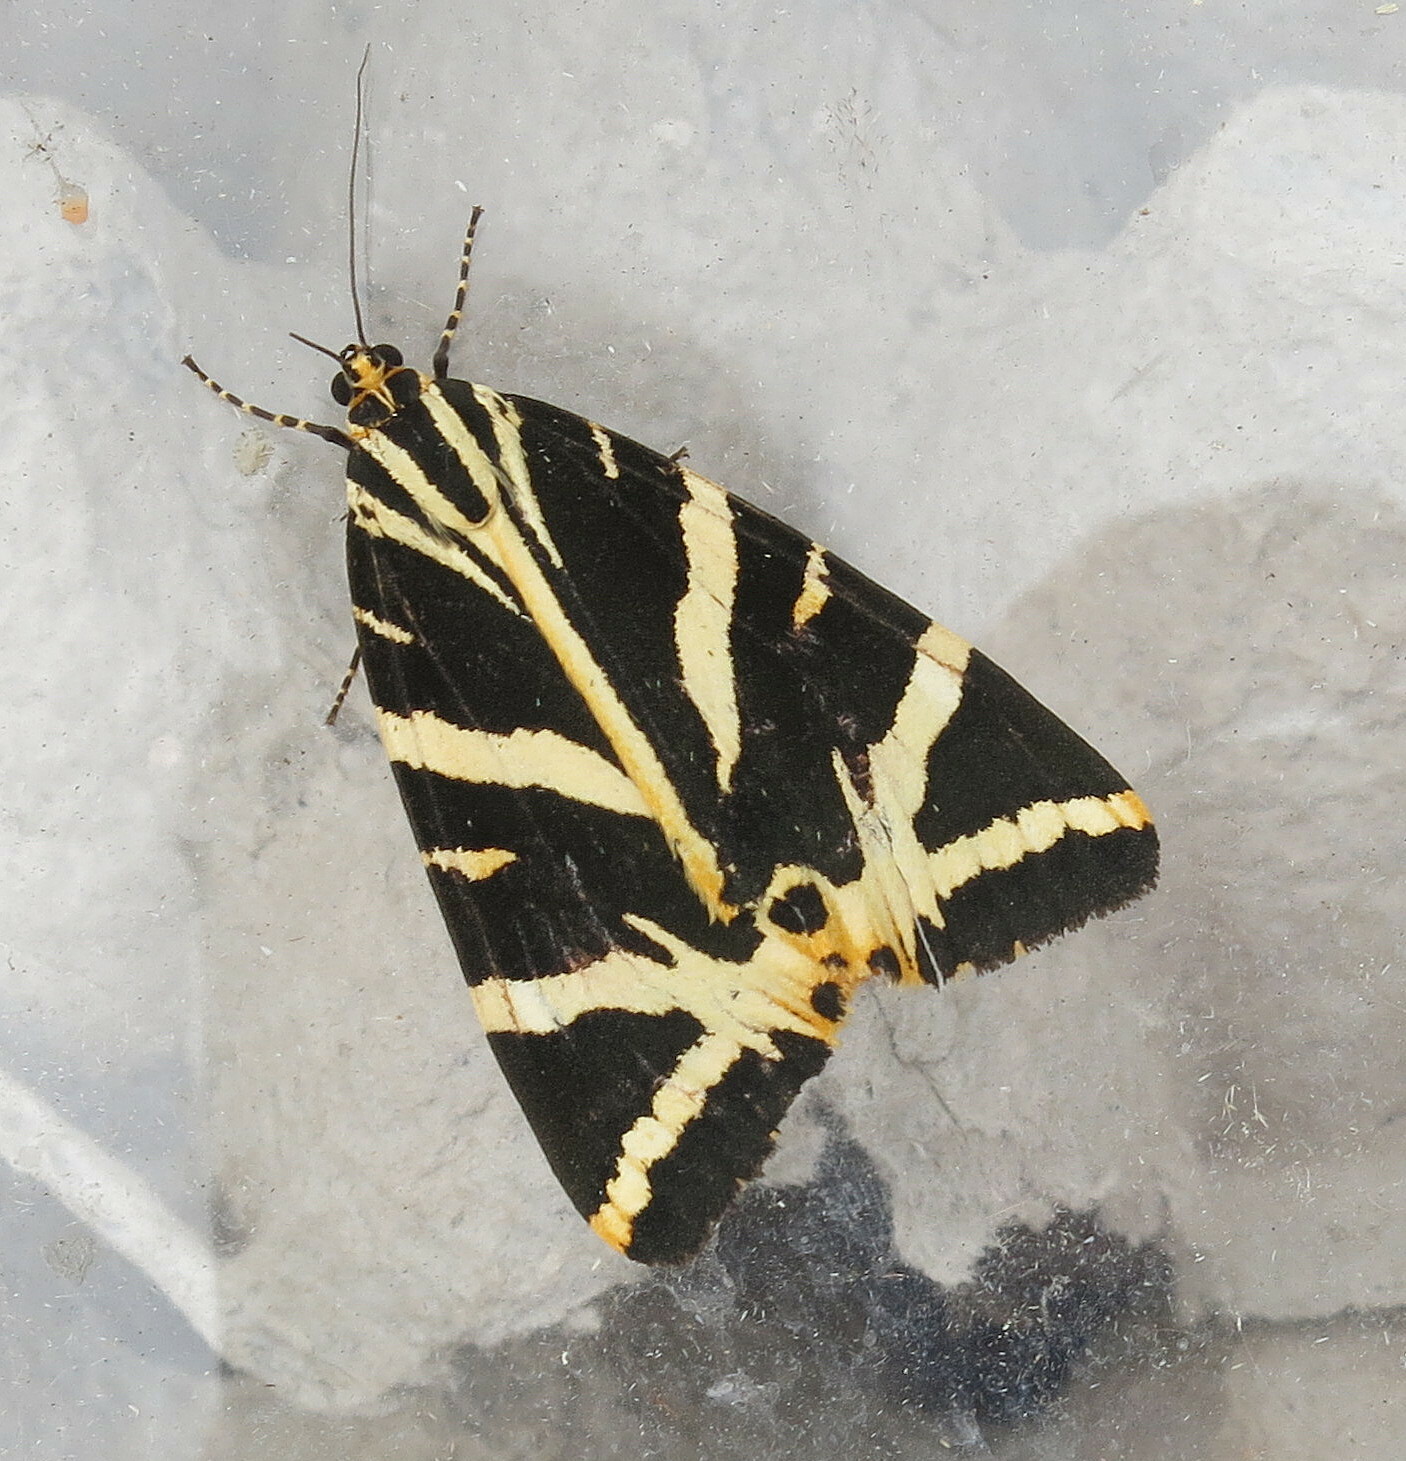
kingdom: Animalia
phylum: Arthropoda
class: Insecta
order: Lepidoptera
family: Erebidae
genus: Euplagia
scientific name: Euplagia quadripunctaria
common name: Jersey tiger
